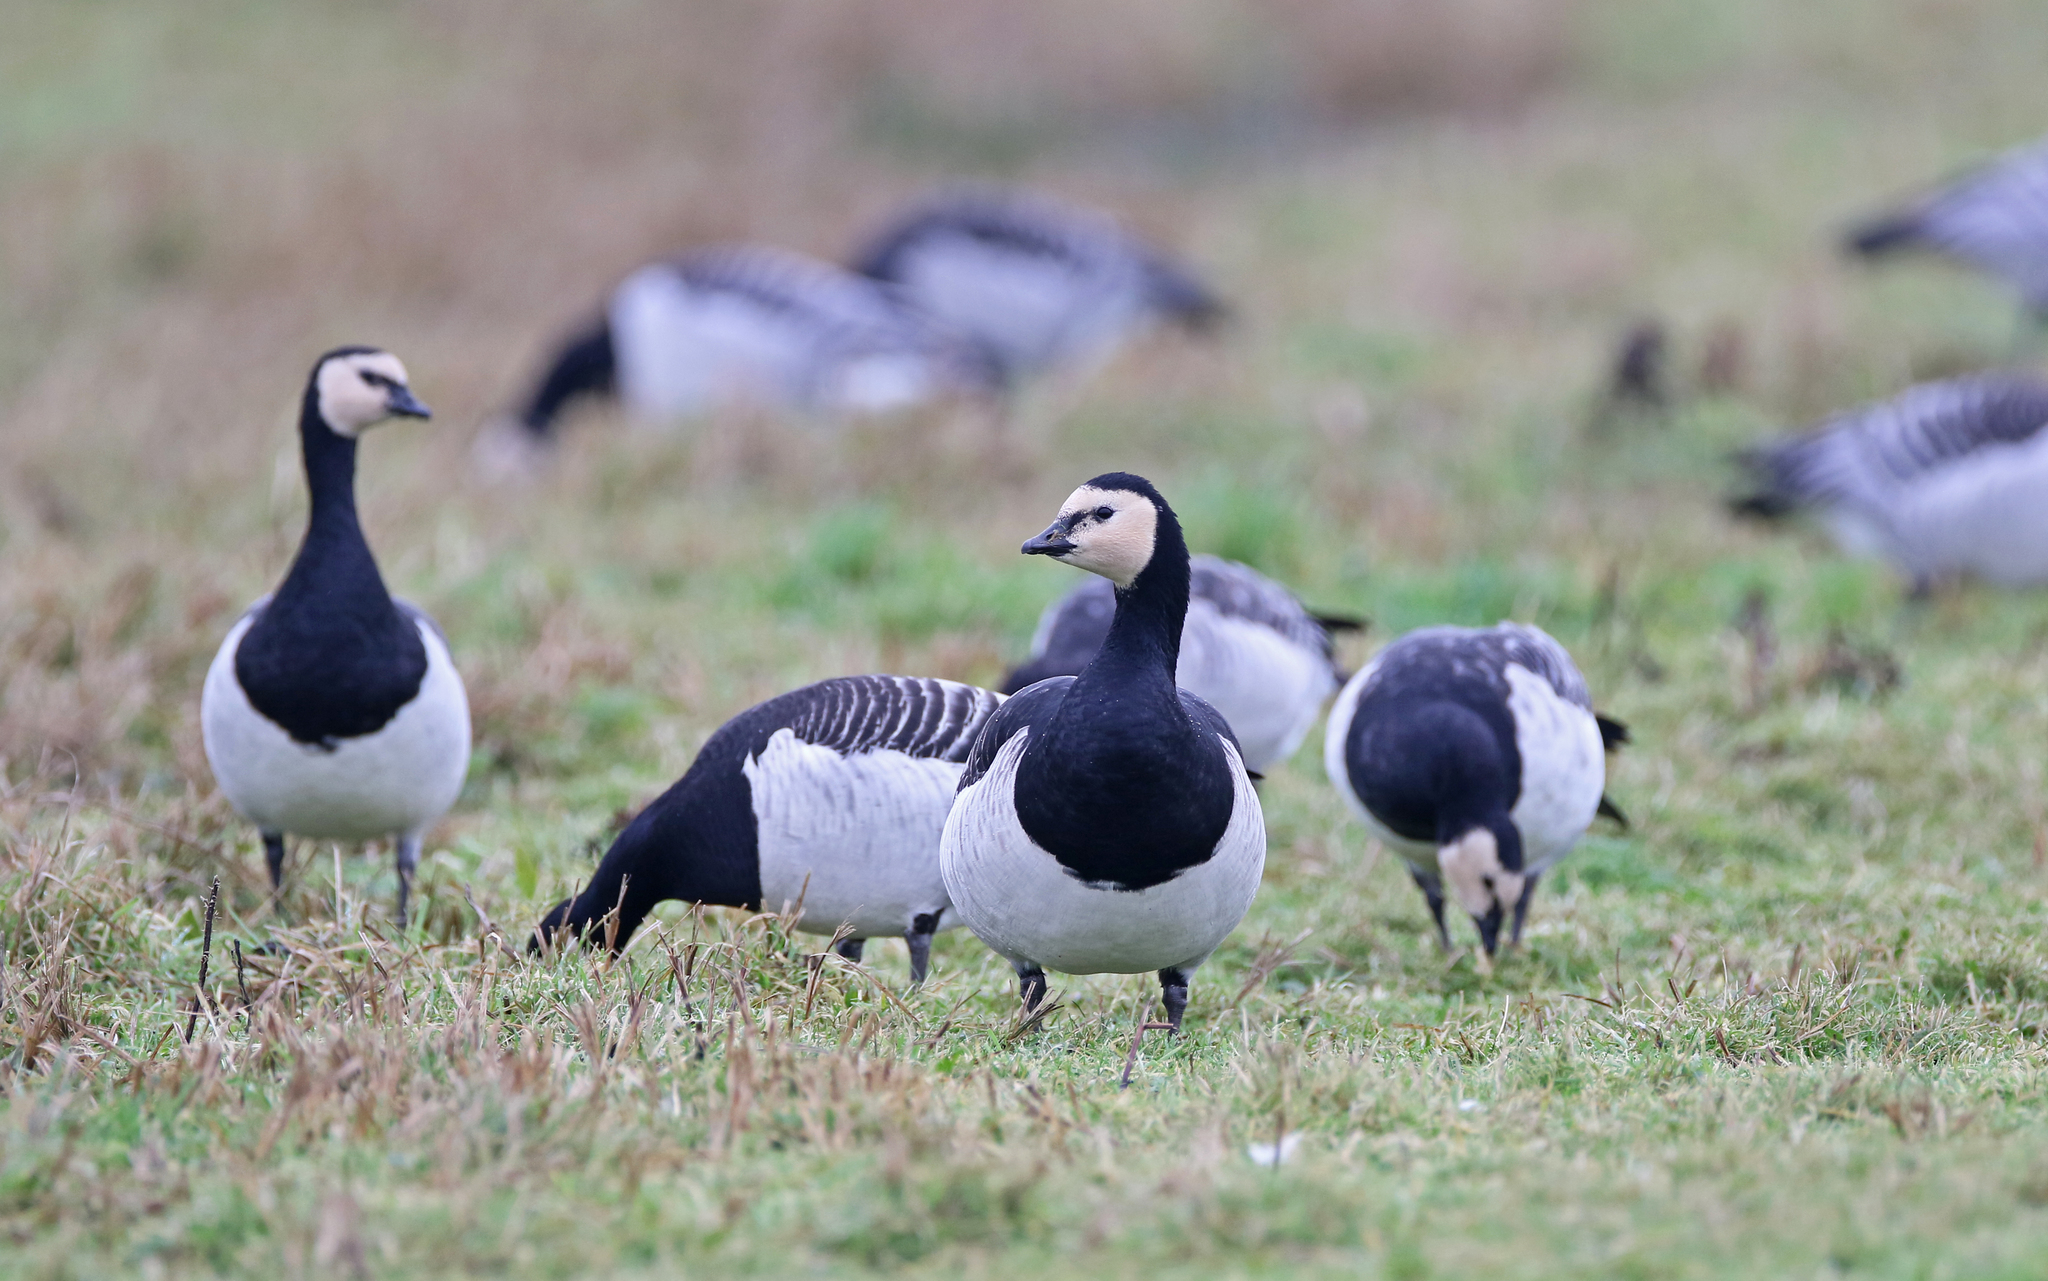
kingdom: Animalia
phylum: Chordata
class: Aves
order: Anseriformes
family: Anatidae
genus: Branta
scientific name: Branta leucopsis
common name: Barnacle goose
